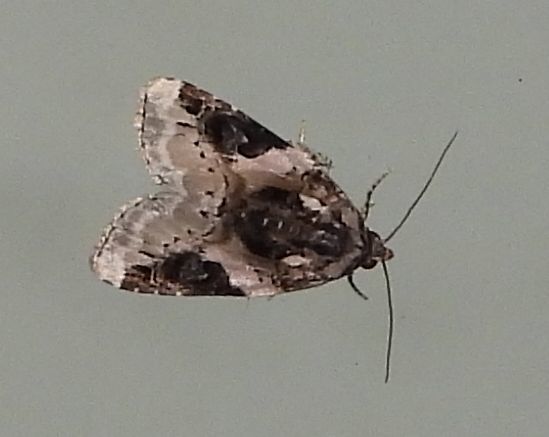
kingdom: Animalia
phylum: Arthropoda
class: Insecta
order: Lepidoptera
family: Noctuidae
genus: Pseudeustrotia
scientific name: Pseudeustrotia carneola
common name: Pink-barred lithacodia moth
